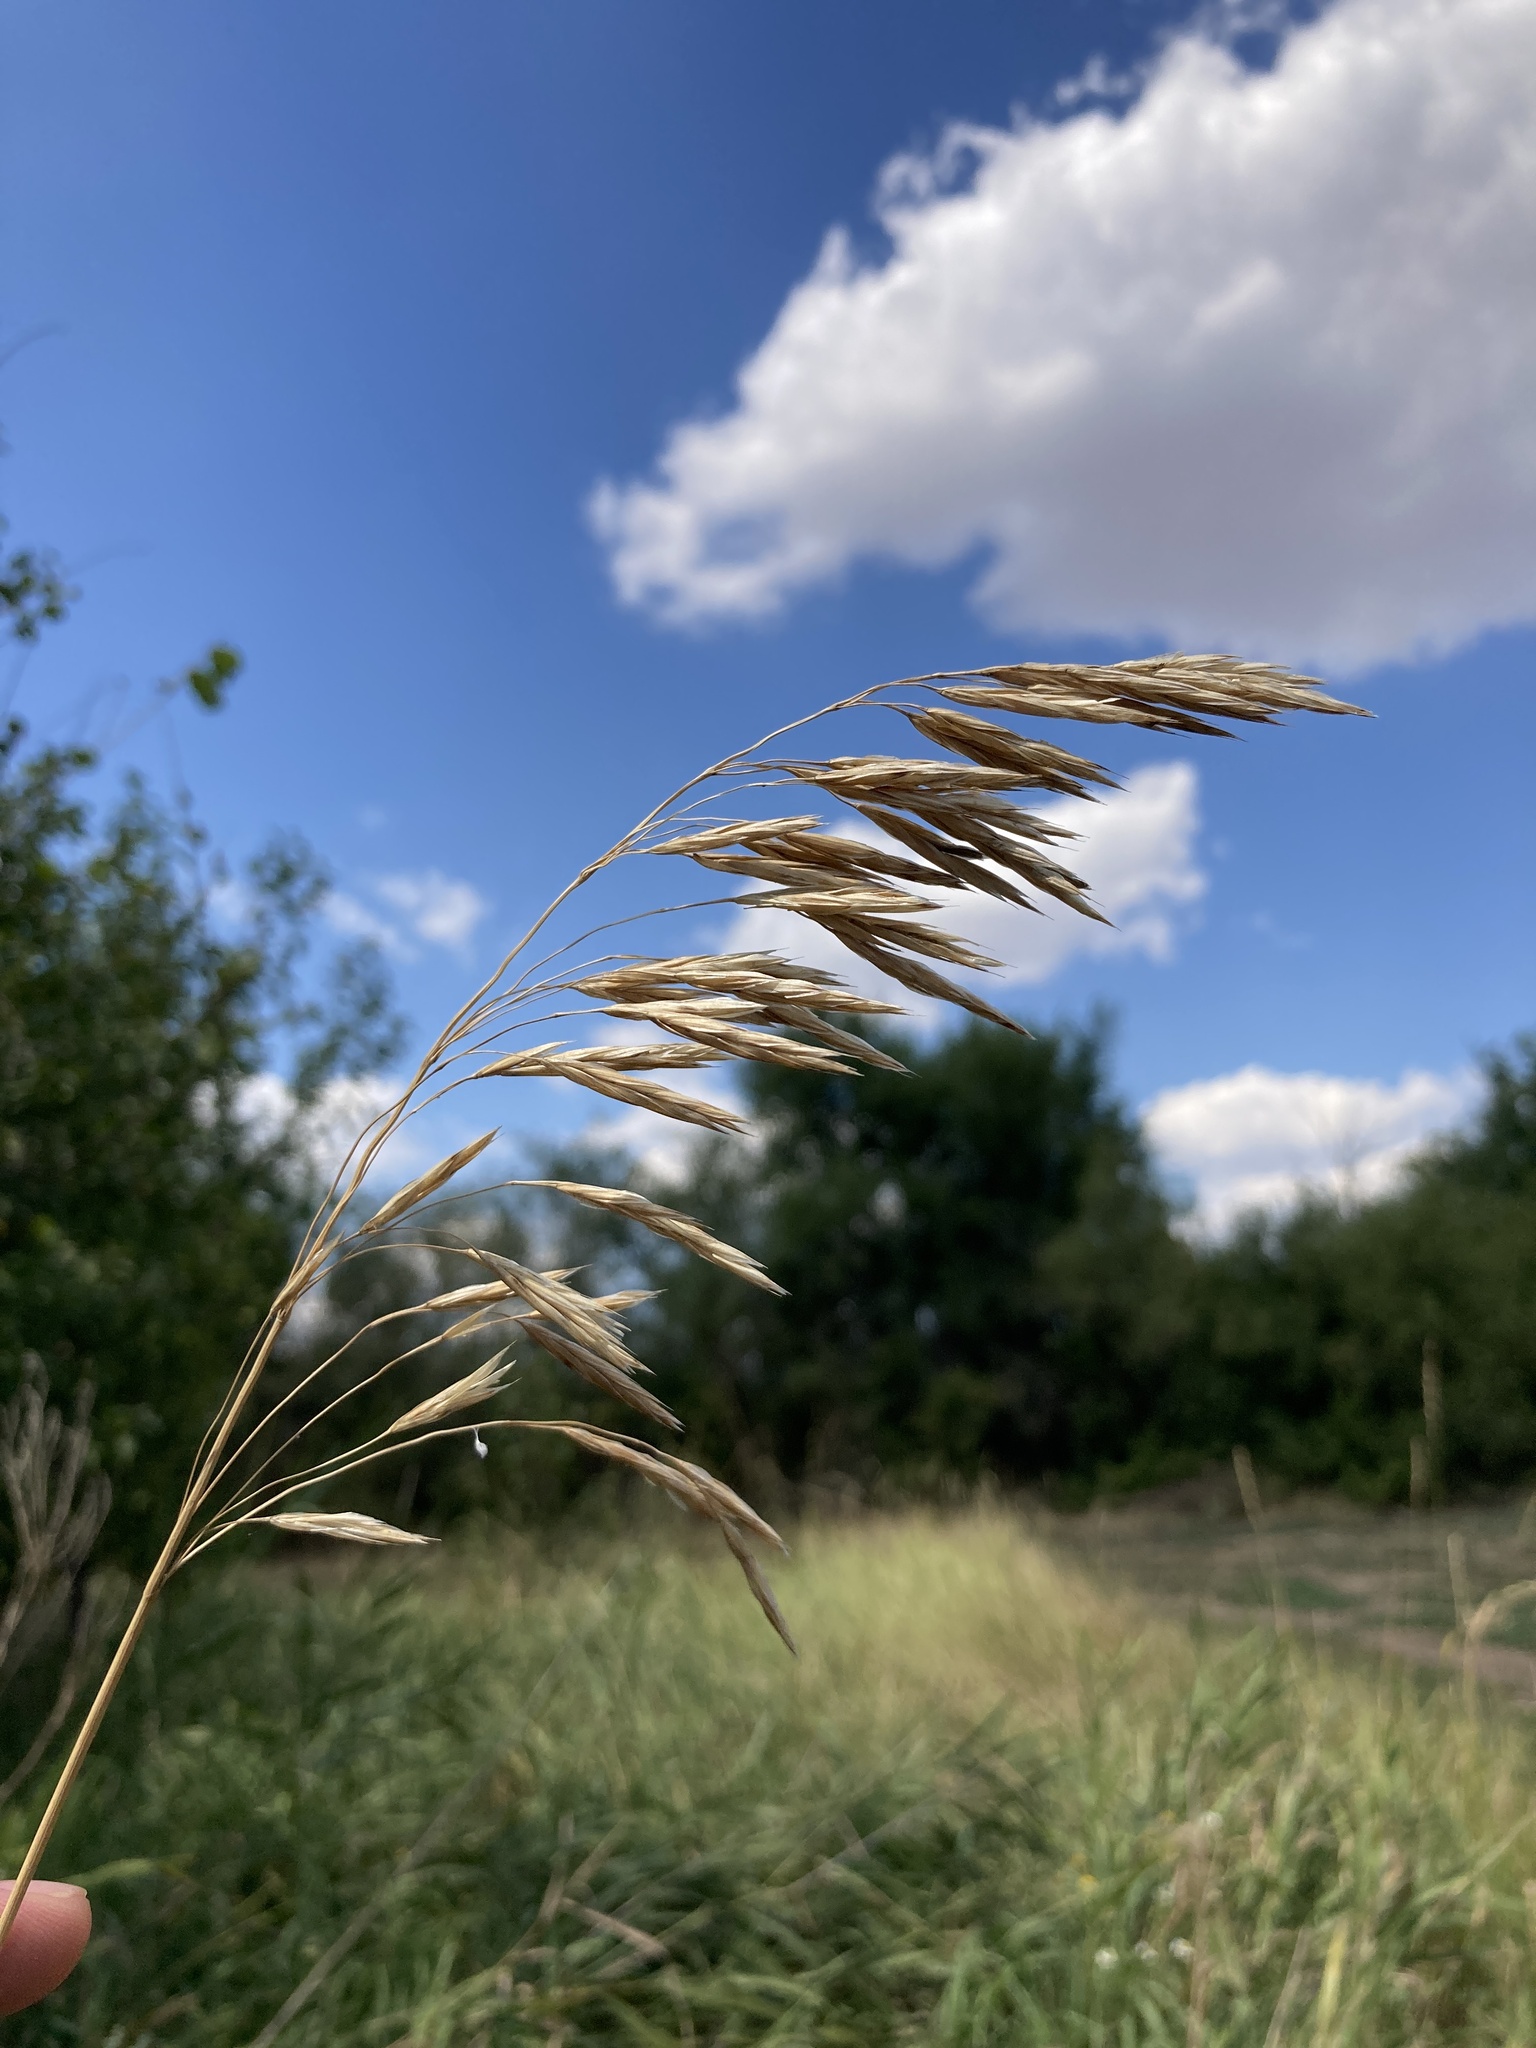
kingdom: Plantae
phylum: Tracheophyta
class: Liliopsida
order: Poales
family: Poaceae
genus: Bromus
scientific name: Bromus inermis
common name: Smooth brome
